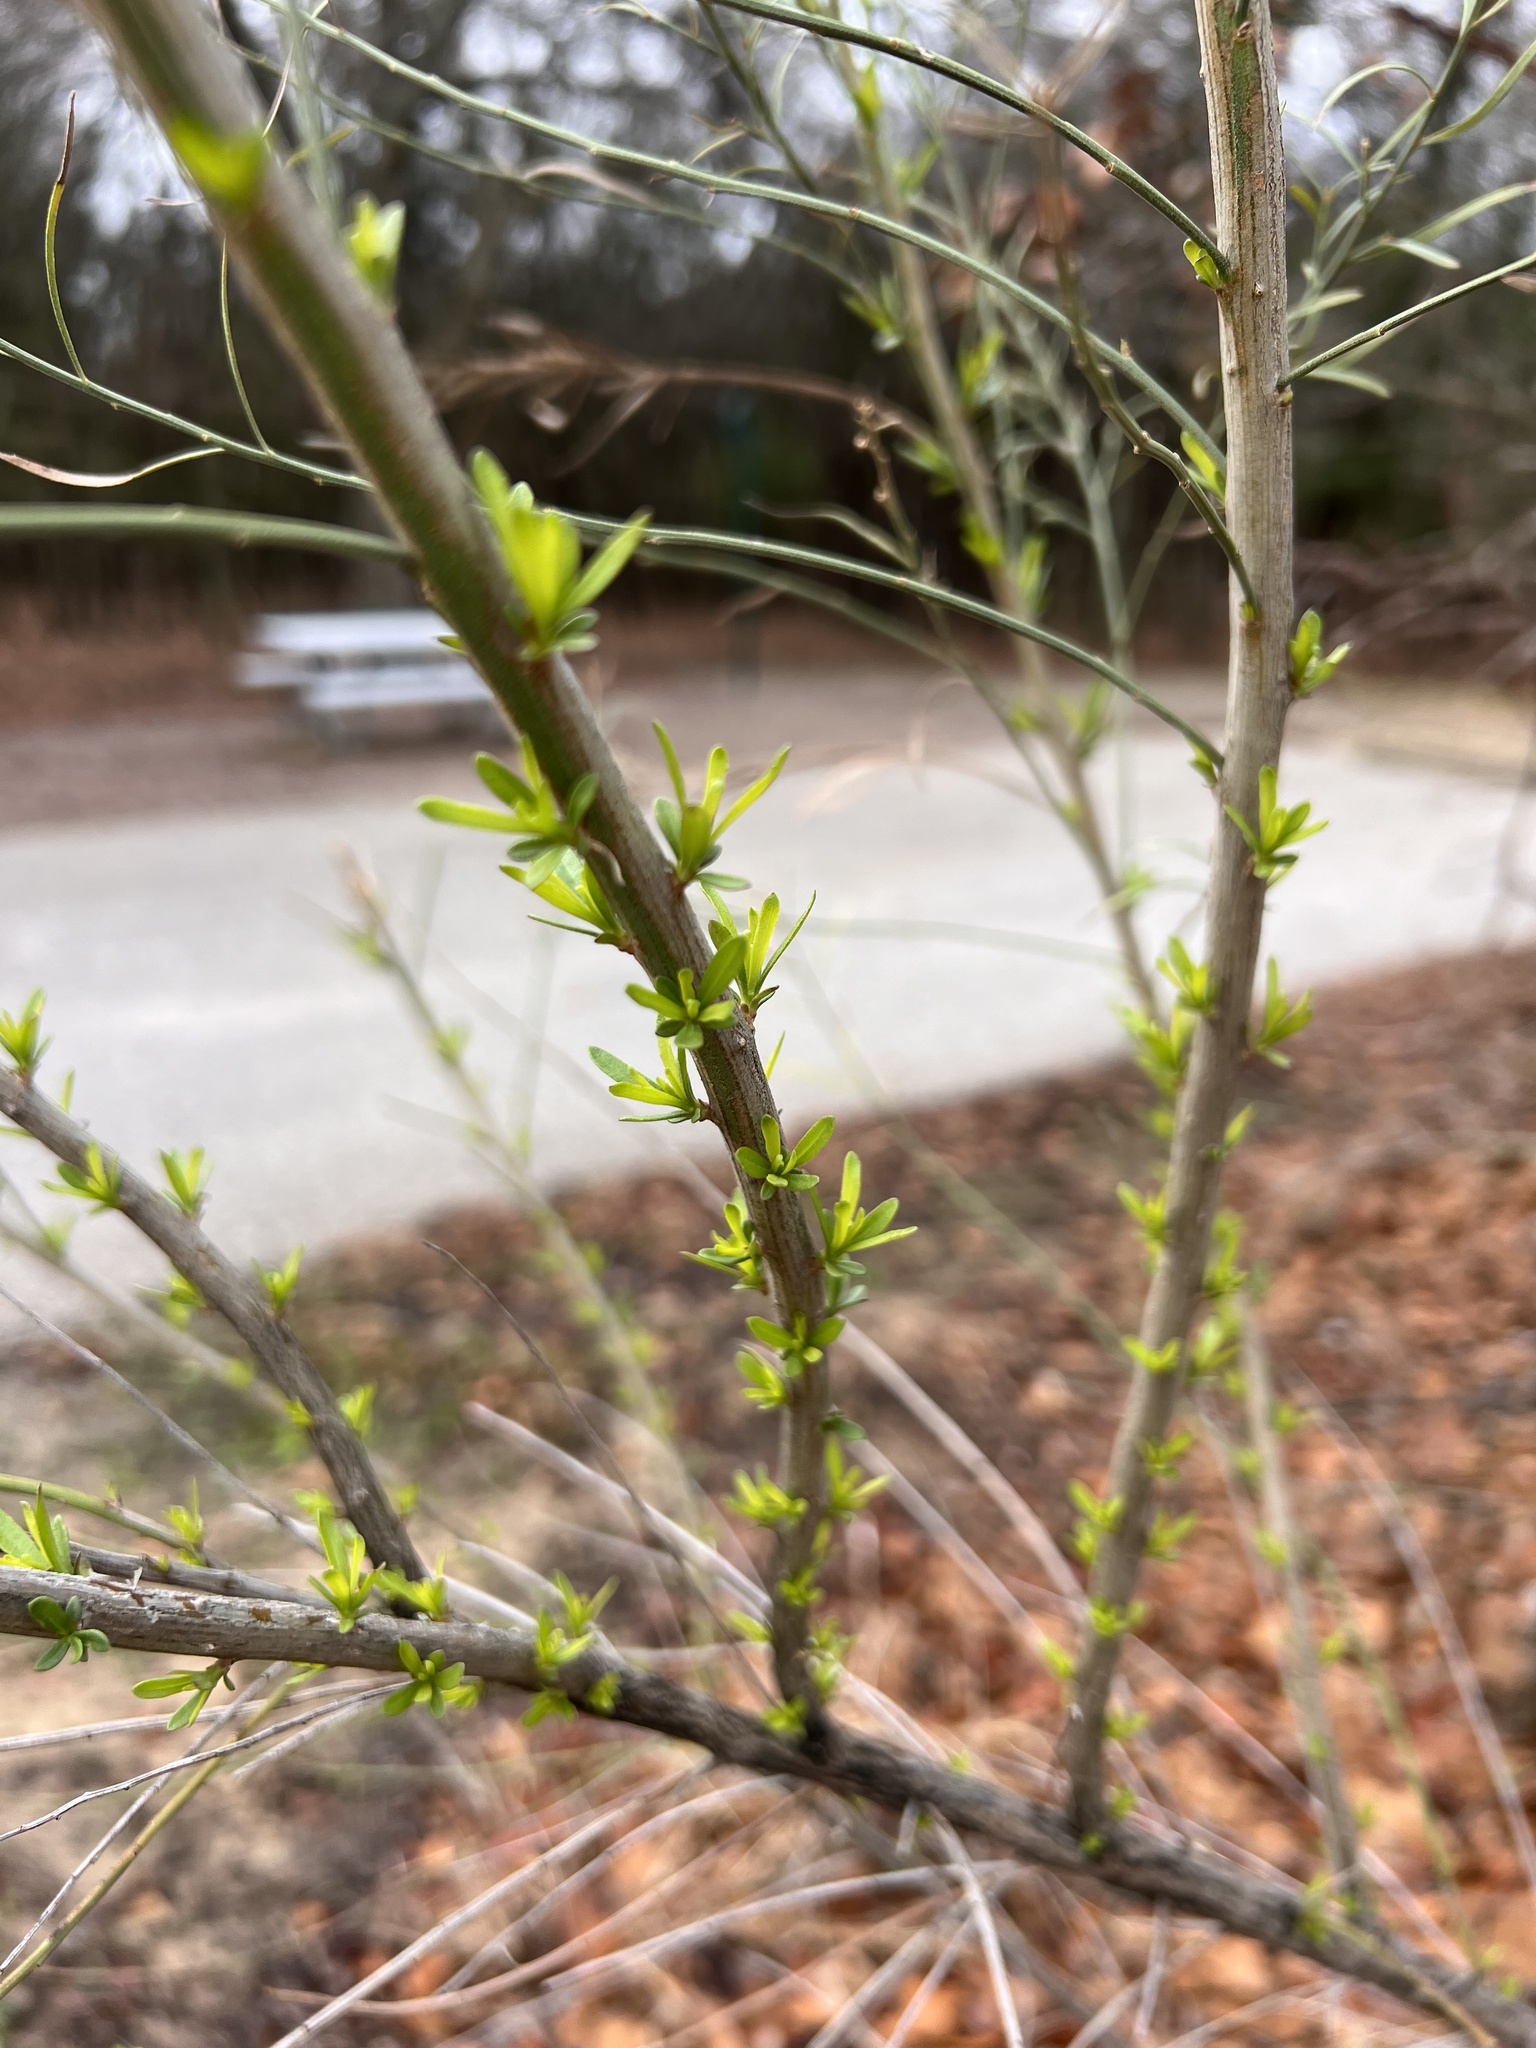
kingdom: Plantae
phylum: Tracheophyta
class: Magnoliopsida
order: Asterales
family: Asteraceae
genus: Baccharis
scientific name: Baccharis neglecta
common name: Roosevelt-weed
